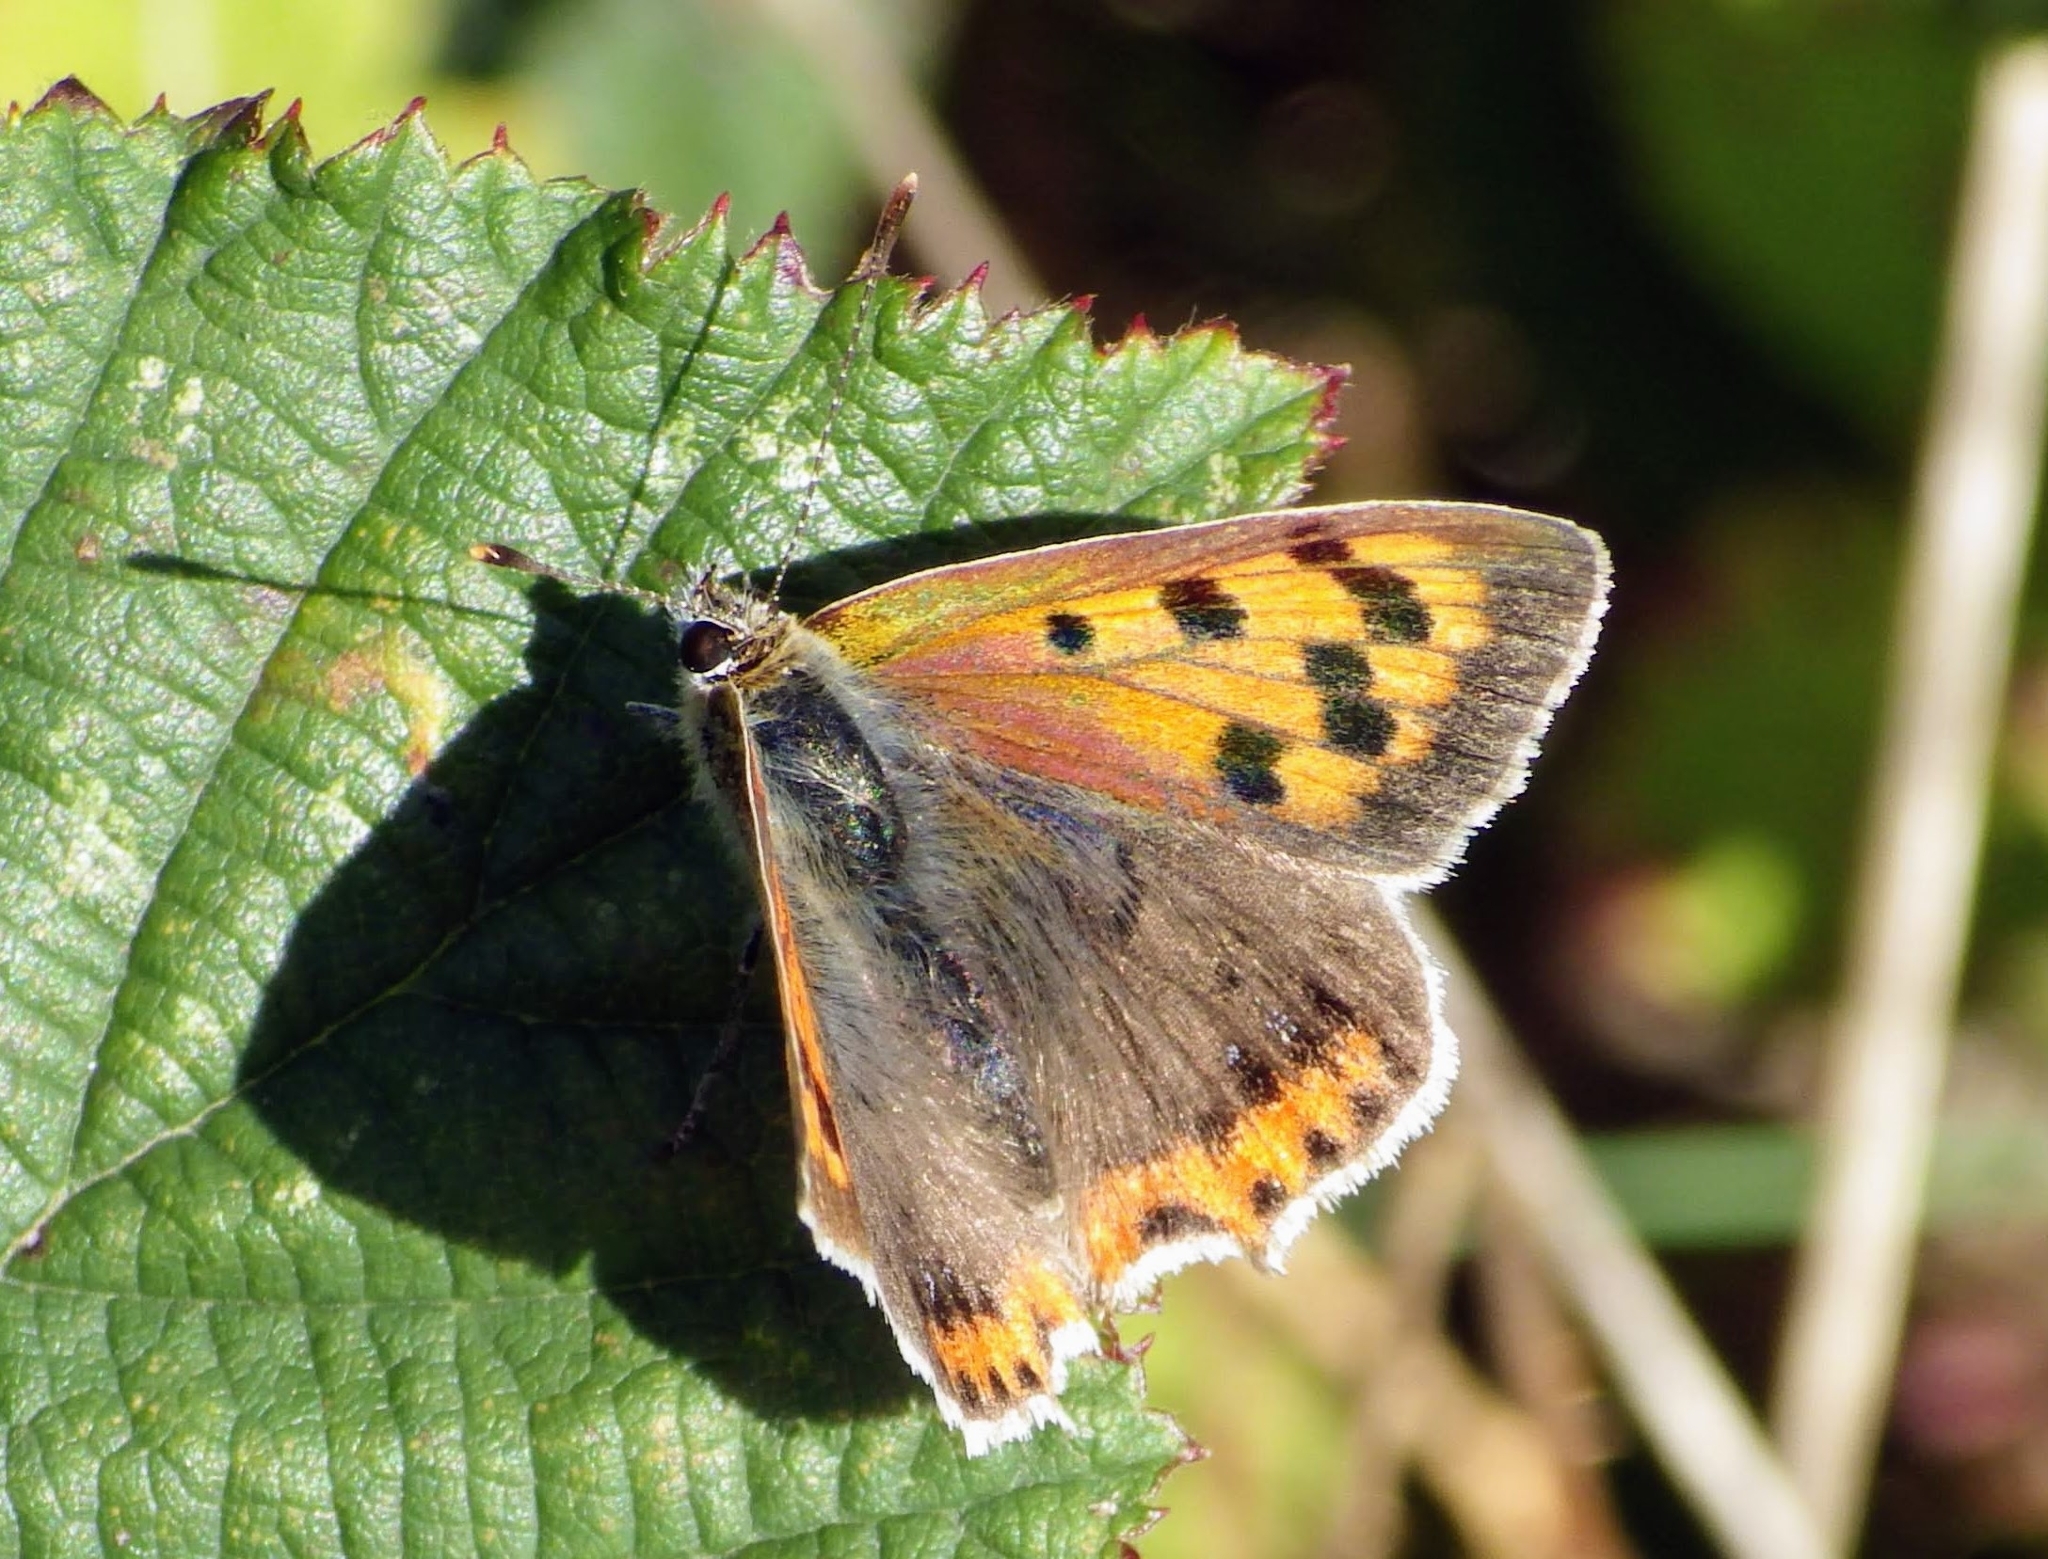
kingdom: Animalia
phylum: Arthropoda
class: Insecta
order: Lepidoptera
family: Lycaenidae
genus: Lycaena
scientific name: Lycaena phlaeas
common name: Small copper
